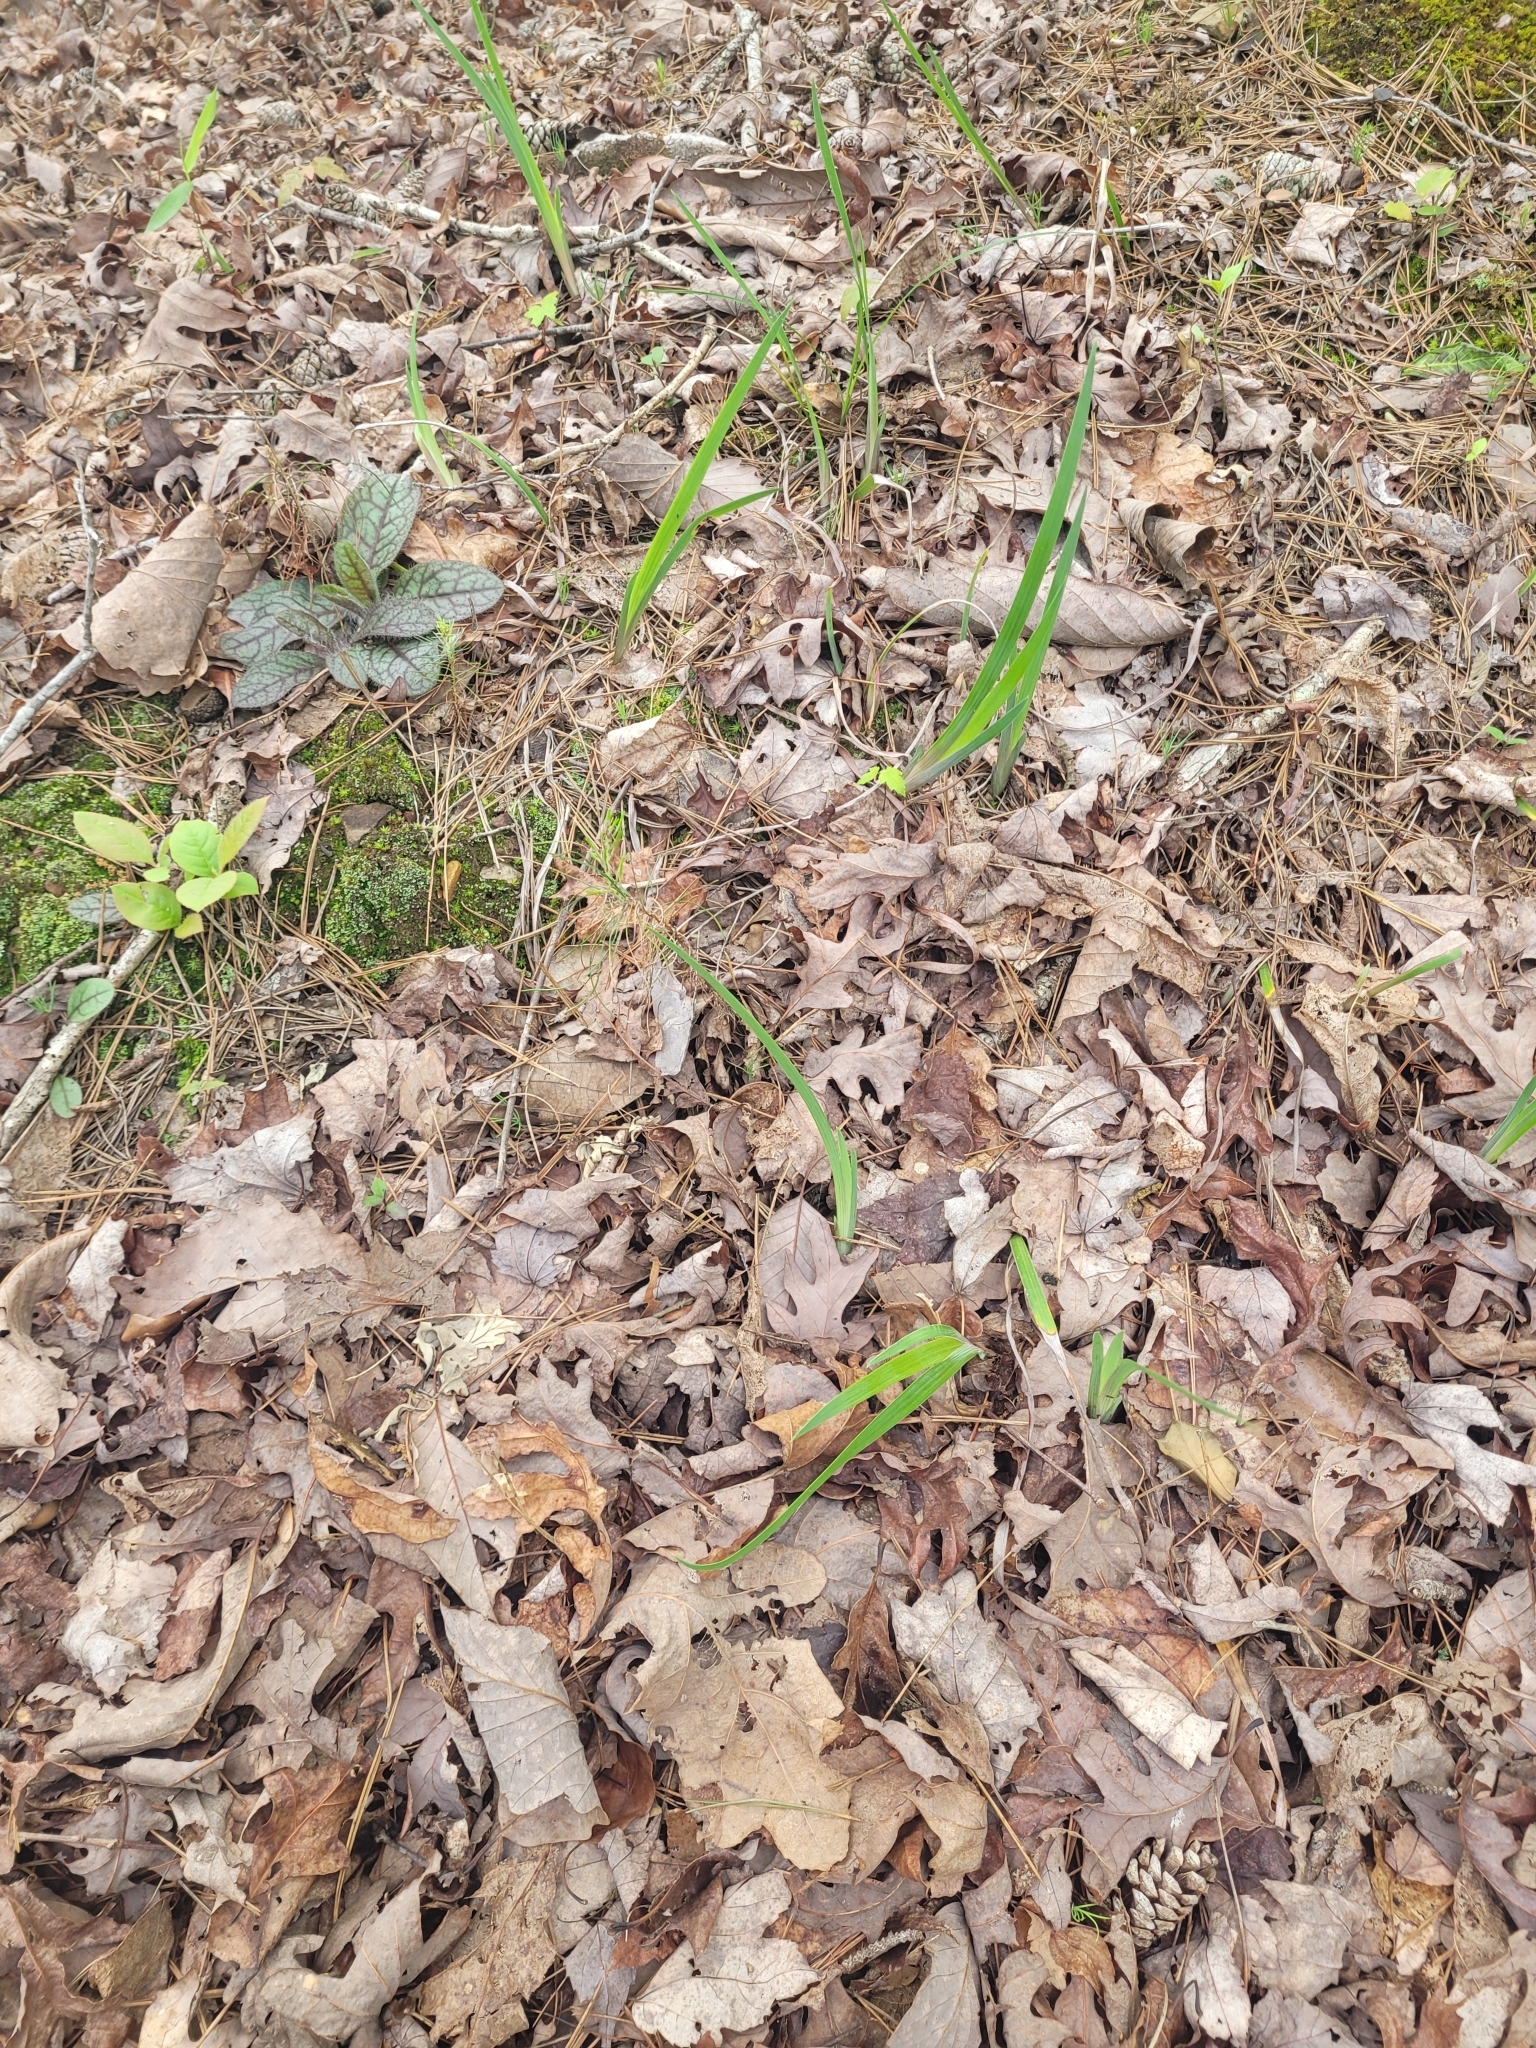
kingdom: Plantae
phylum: Tracheophyta
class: Liliopsida
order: Asparagales
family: Iridaceae
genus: Iris
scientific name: Iris verna
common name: Dwarf iris
